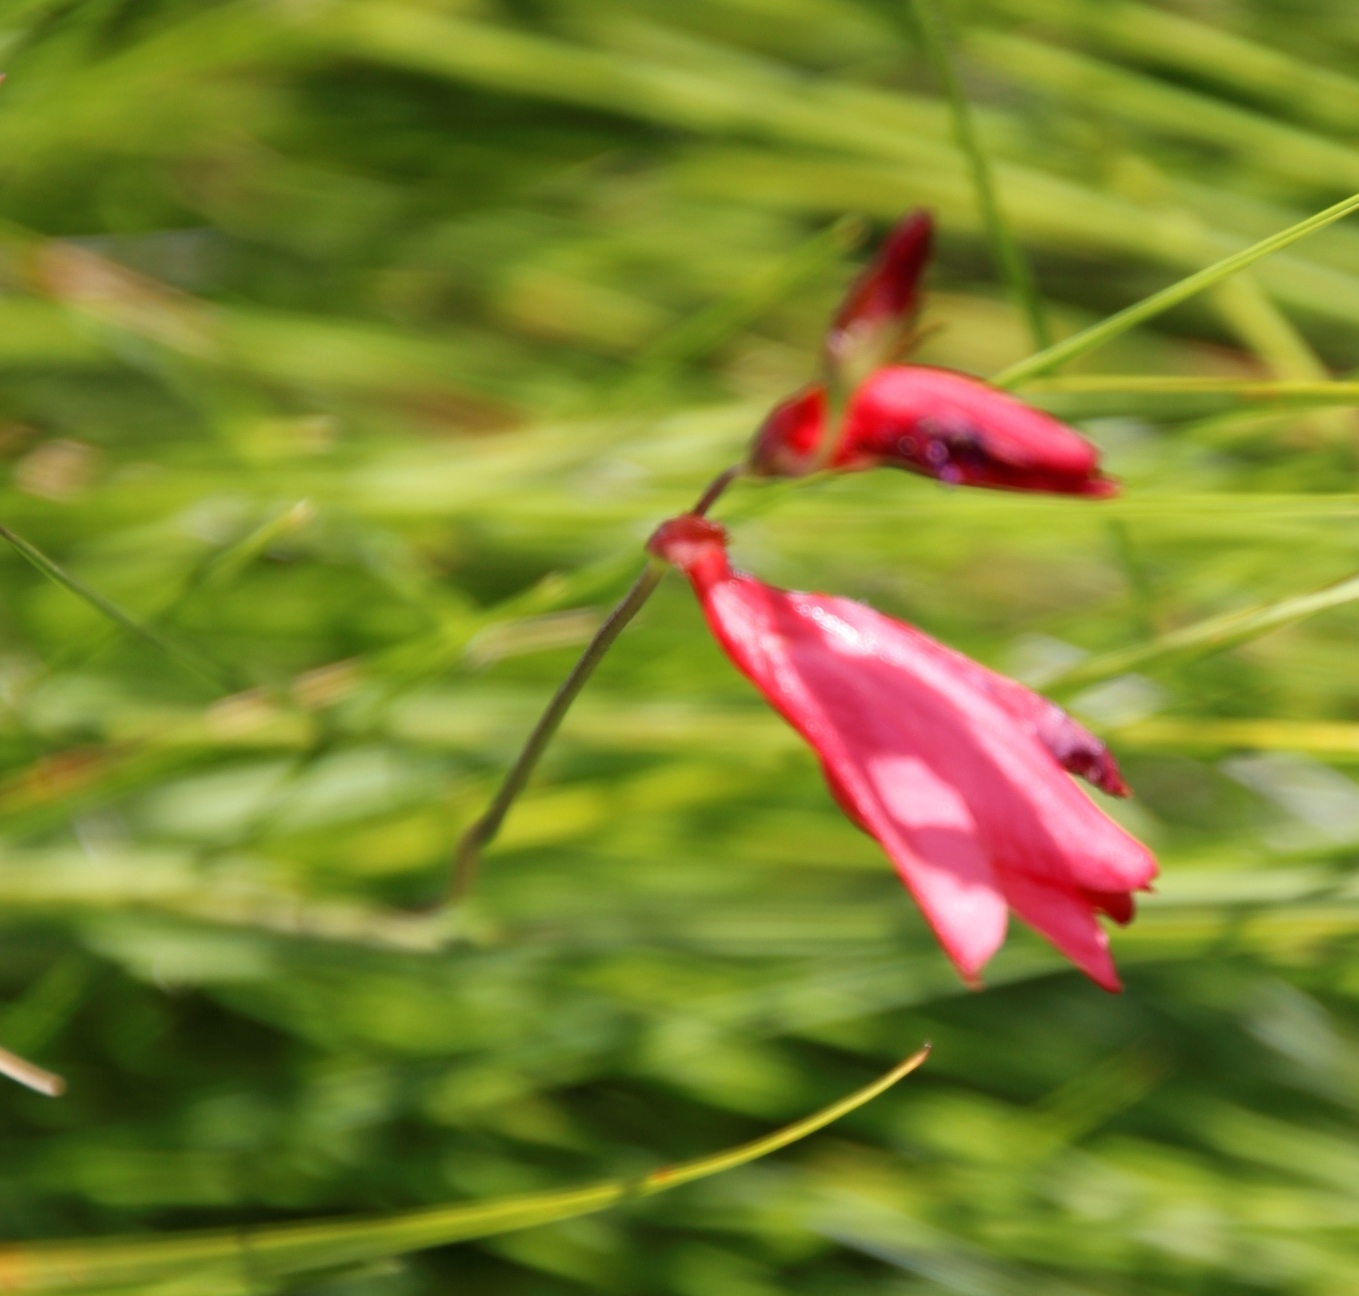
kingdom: Plantae
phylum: Tracheophyta
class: Liliopsida
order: Asparagales
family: Iridaceae
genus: Tritonia
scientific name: Tritonia drakensbergensis
